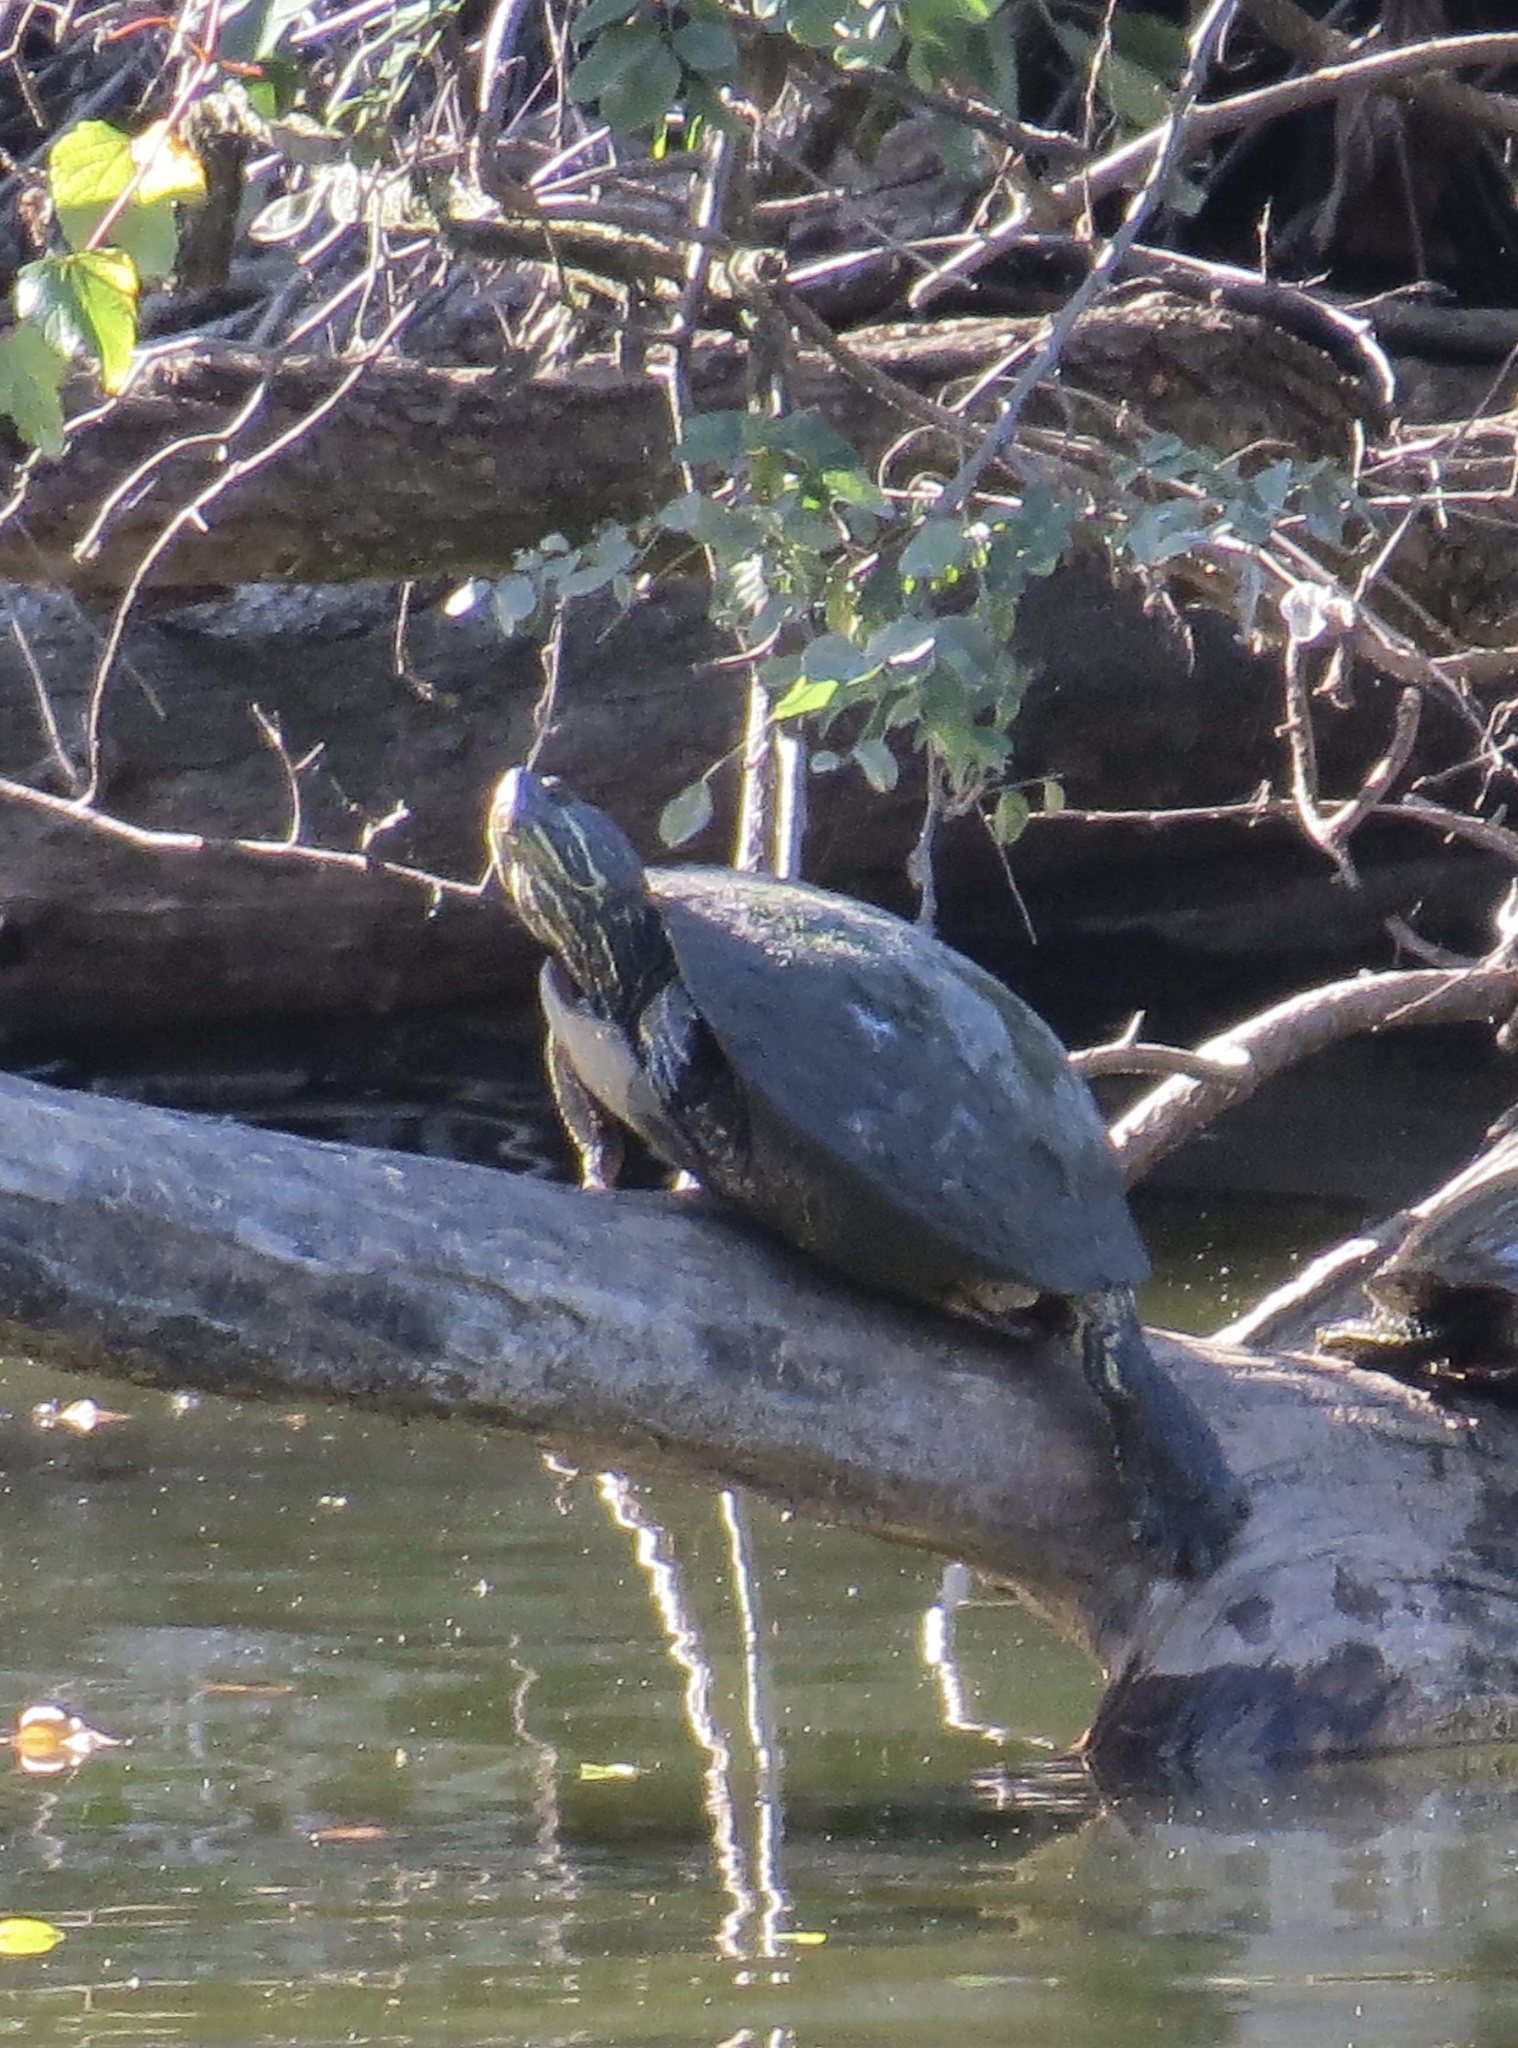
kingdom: Animalia
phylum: Chordata
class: Testudines
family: Emydidae
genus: Trachemys
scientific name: Trachemys scripta
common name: Slider
